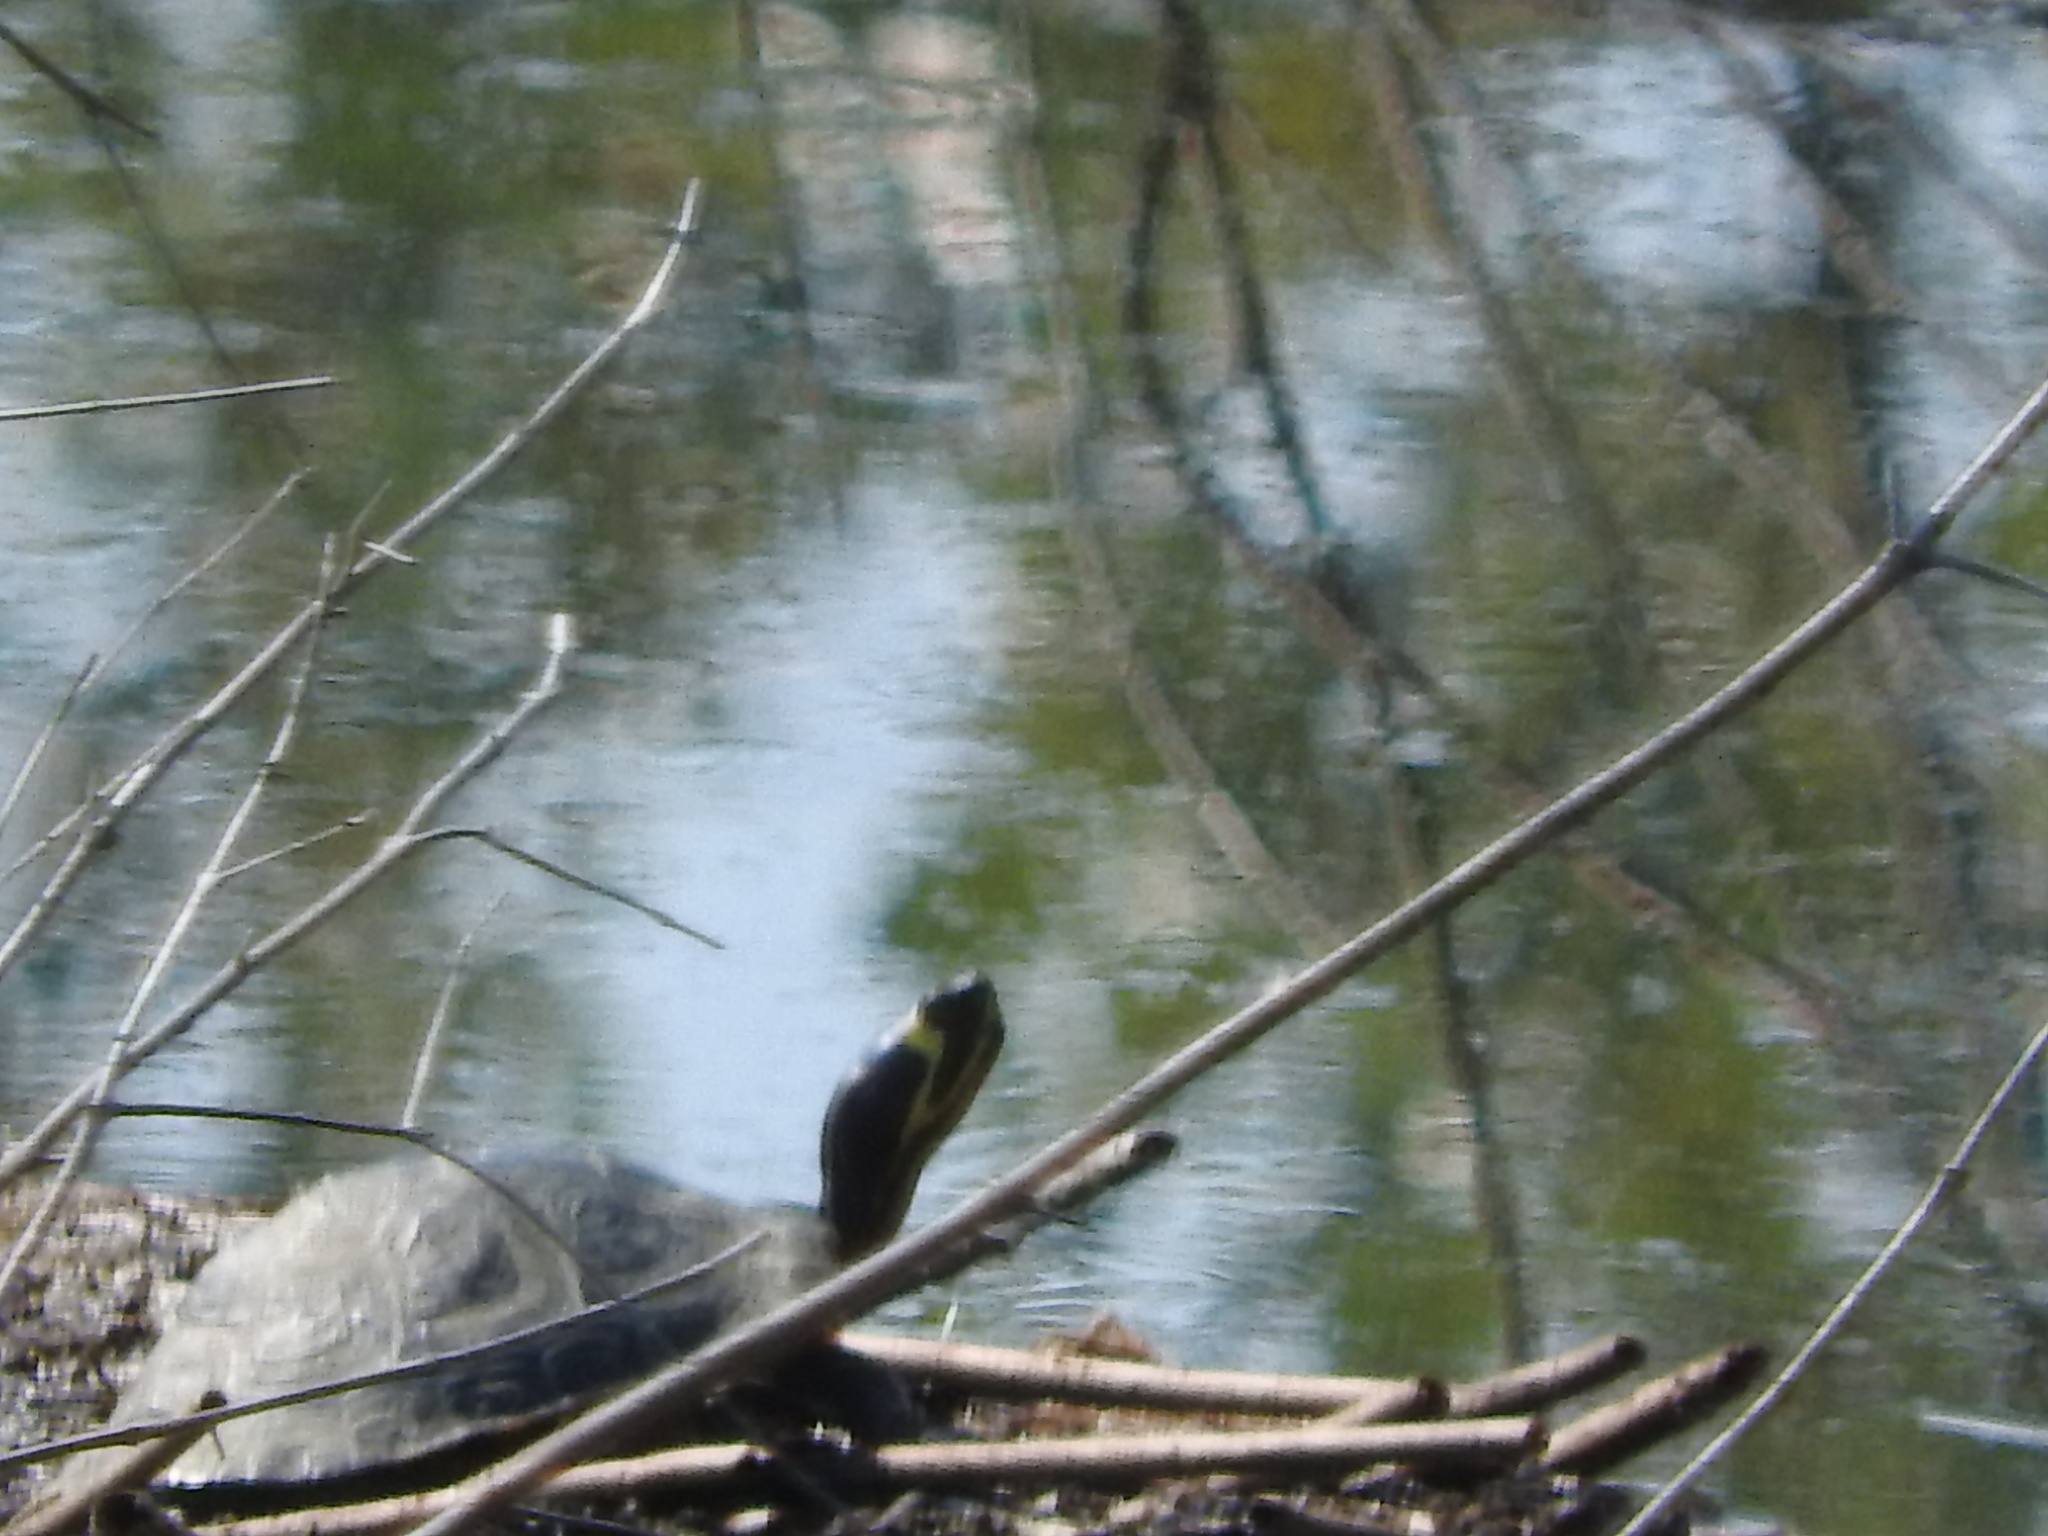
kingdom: Animalia
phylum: Chordata
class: Testudines
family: Emydidae
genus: Trachemys
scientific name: Trachemys scripta
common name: Slider
